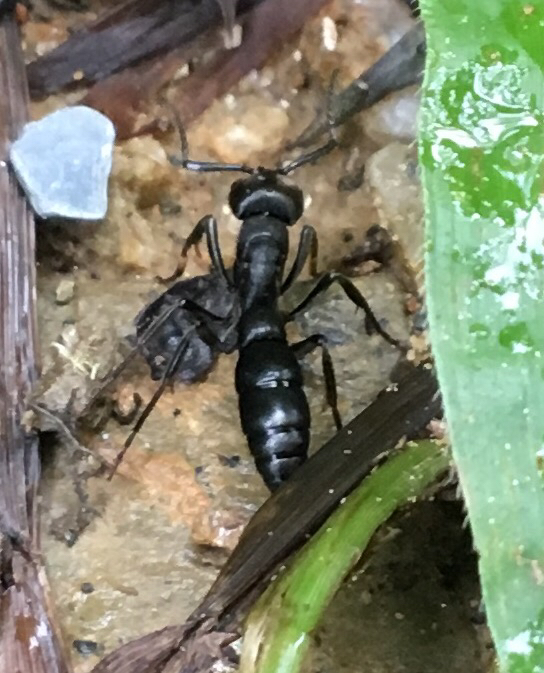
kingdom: Animalia
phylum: Arthropoda
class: Insecta
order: Hymenoptera
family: Formicidae
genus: Pachycondyla
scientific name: Pachycondyla impressa
